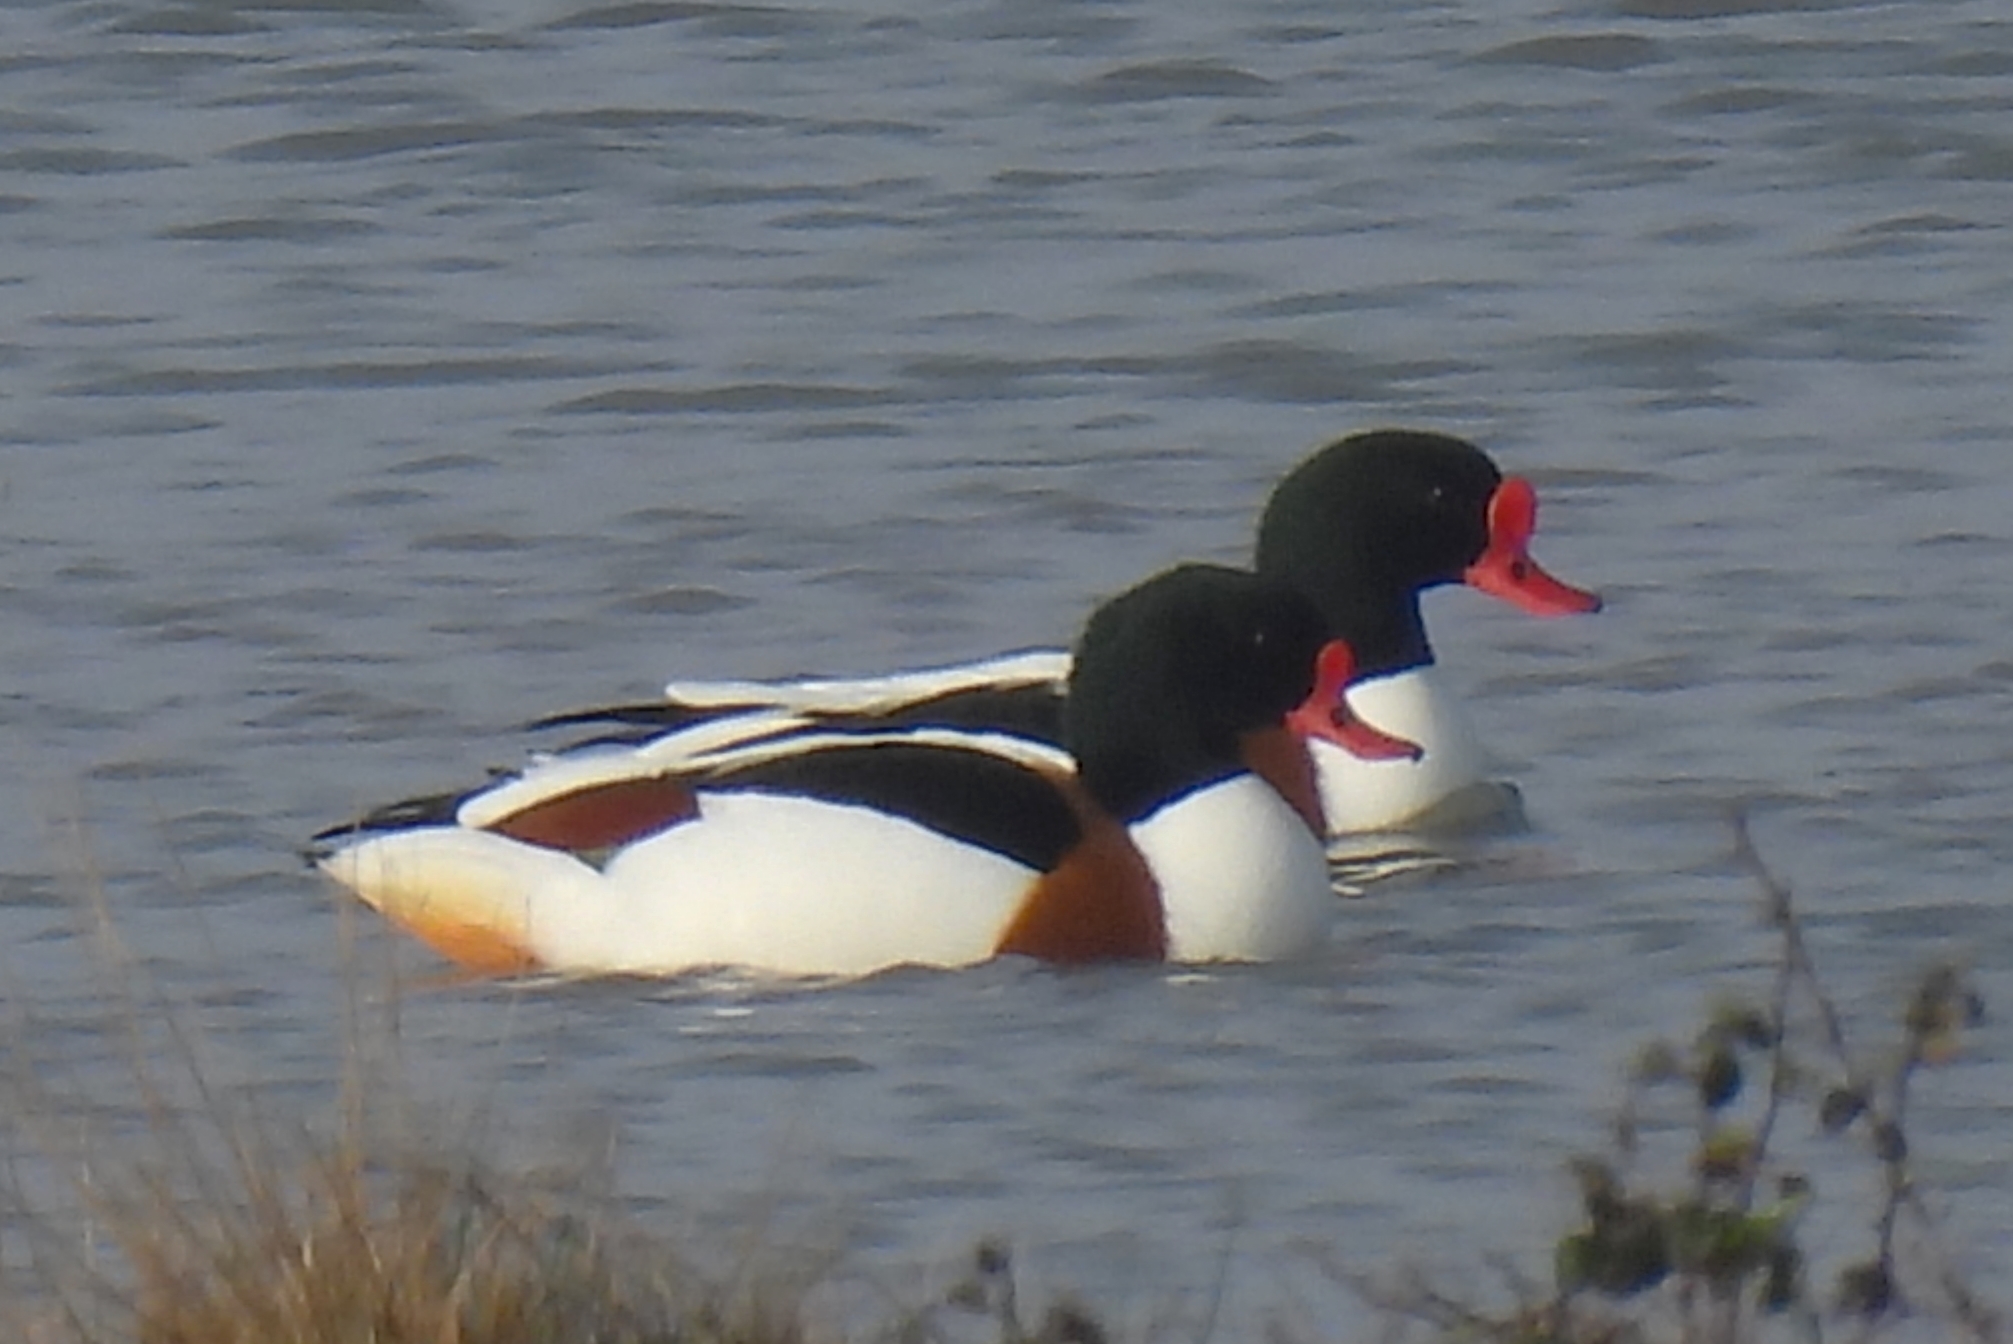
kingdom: Animalia
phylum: Chordata
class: Aves
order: Anseriformes
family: Anatidae
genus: Tadorna
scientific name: Tadorna tadorna
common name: Common shelduck
